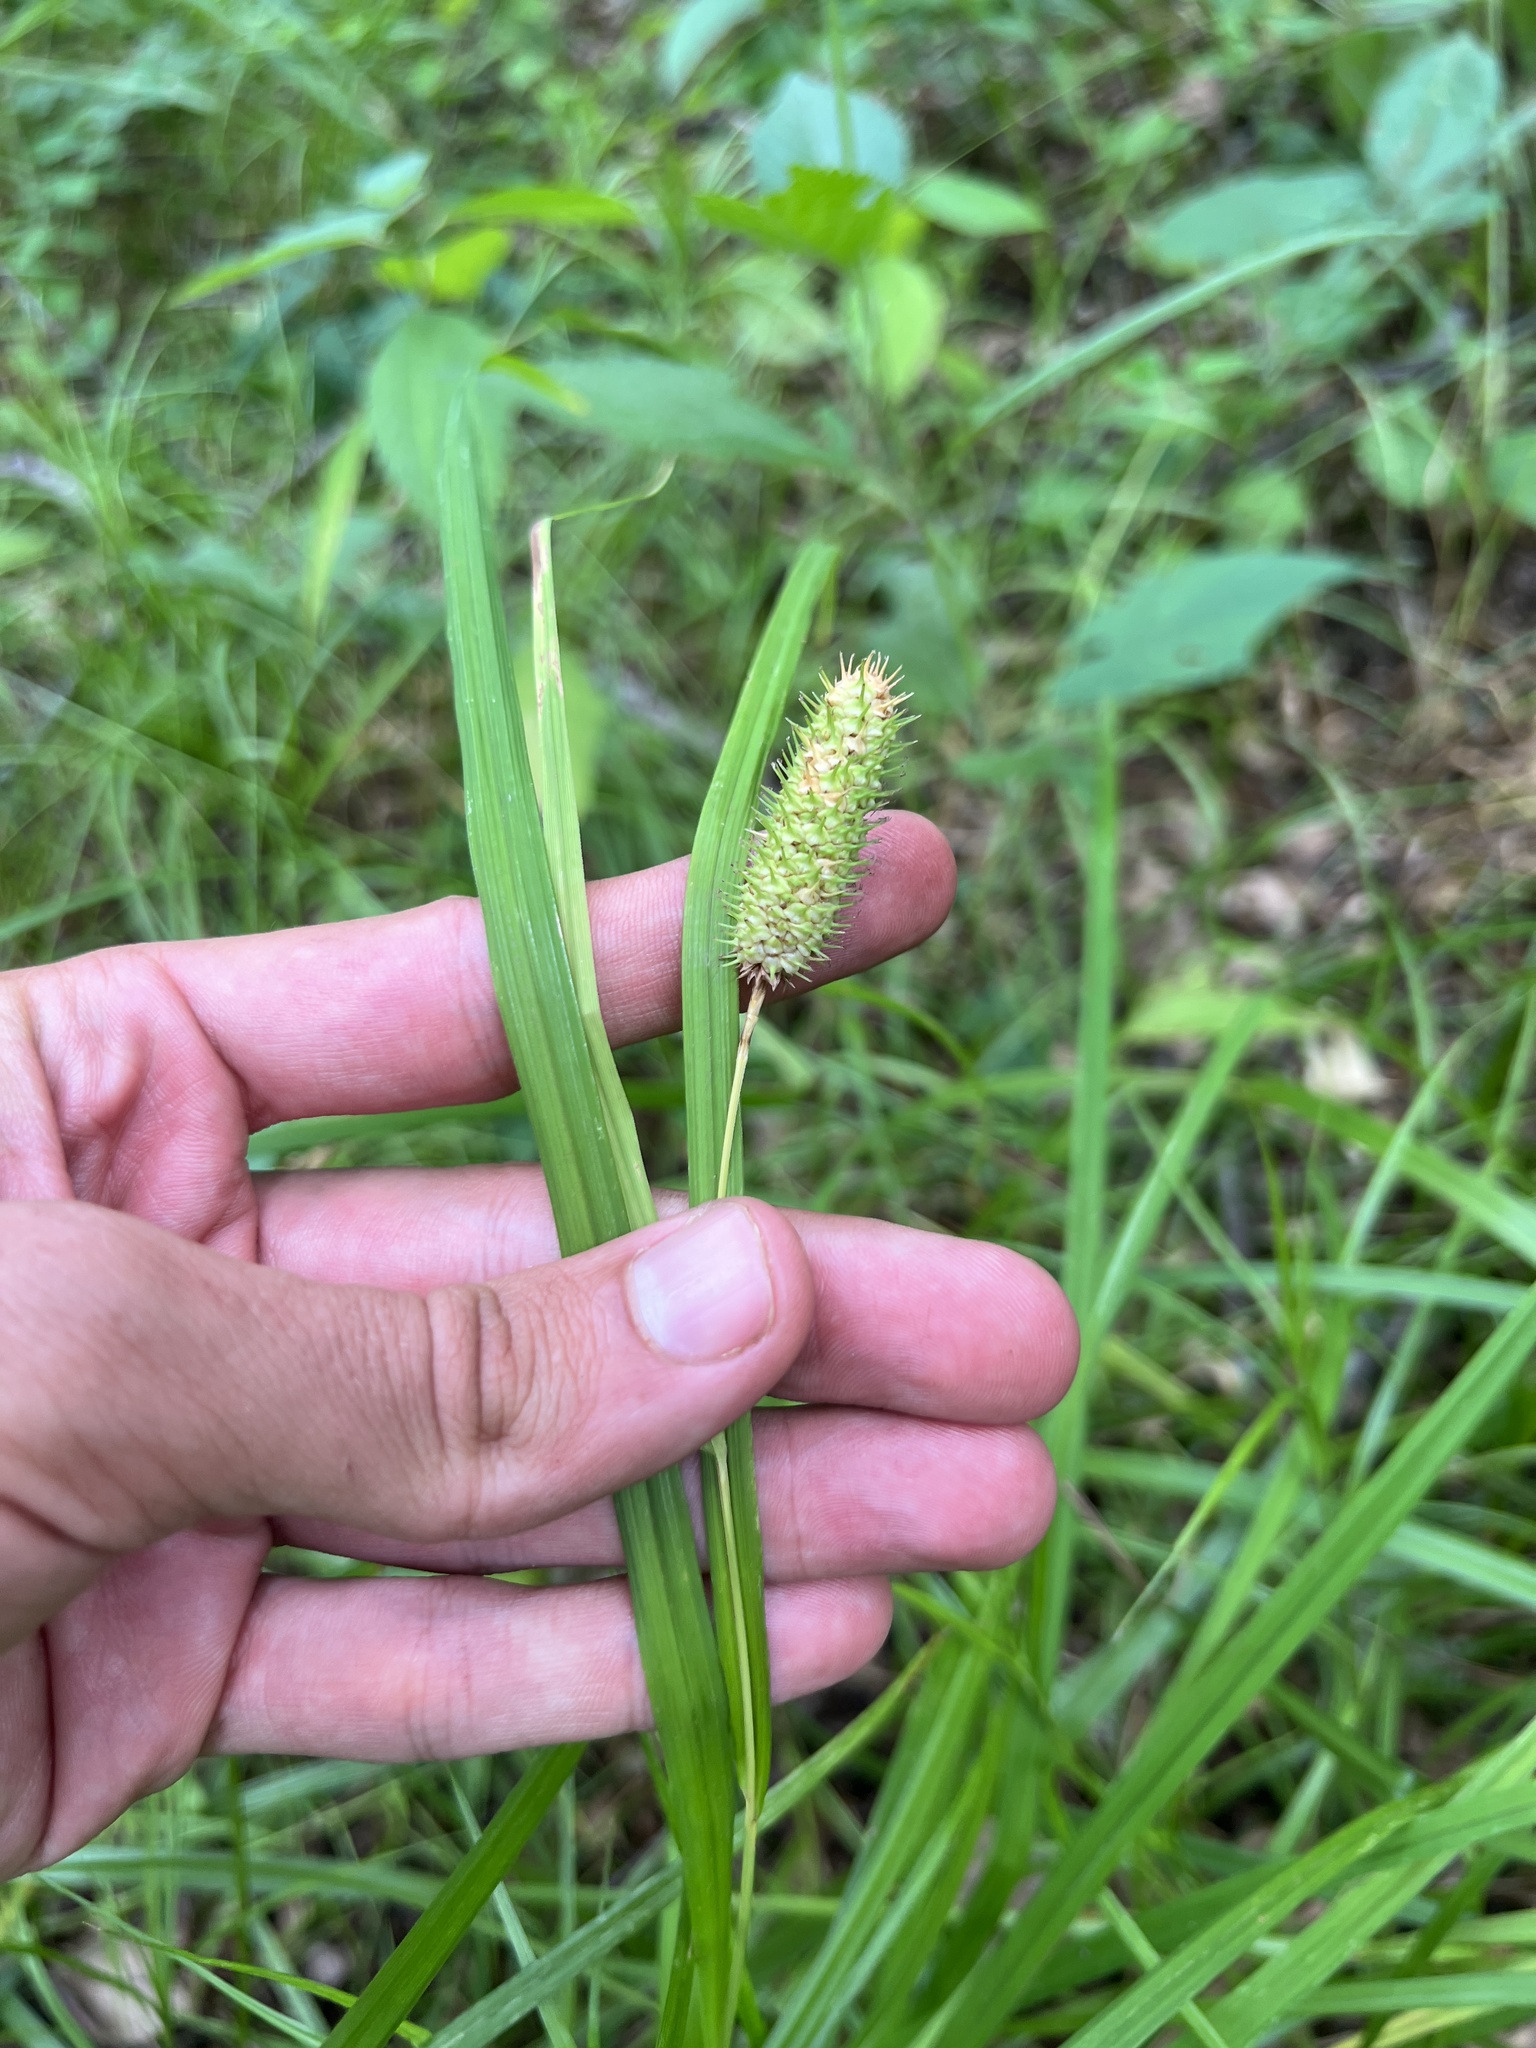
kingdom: Plantae
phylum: Tracheophyta
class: Liliopsida
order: Poales
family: Cyperaceae
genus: Carex
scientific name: Carex typhina
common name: Cattail sedge
